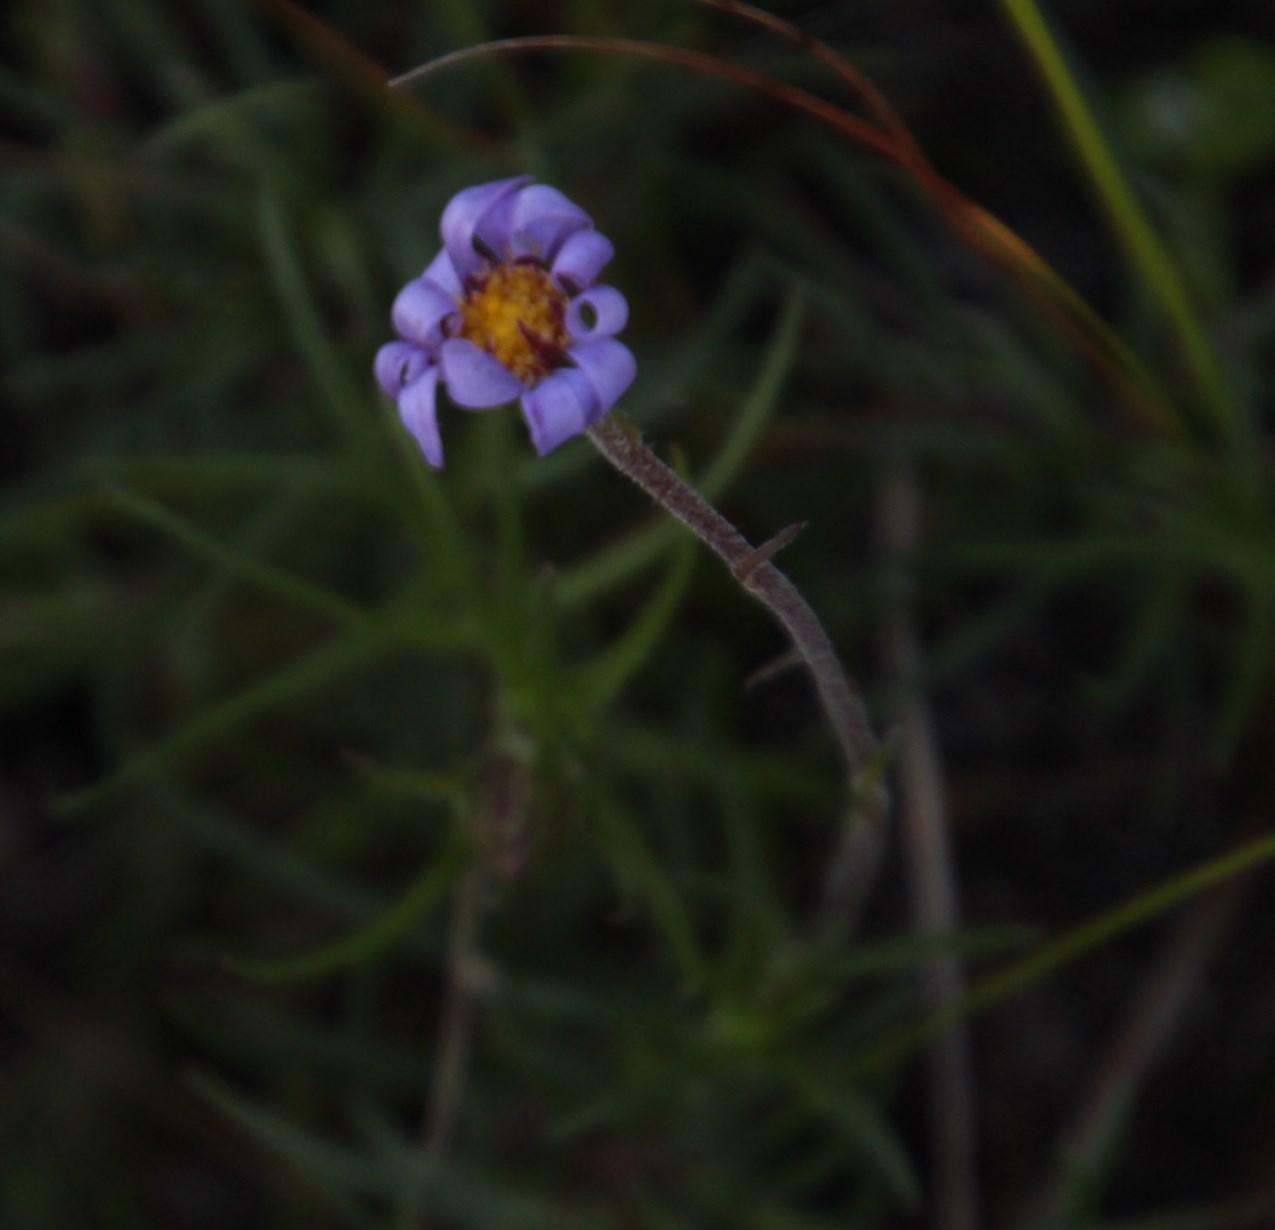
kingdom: Plantae
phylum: Tracheophyta
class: Magnoliopsida
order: Asterales
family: Asteraceae
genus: Zyrphelis
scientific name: Zyrphelis taxifolia
